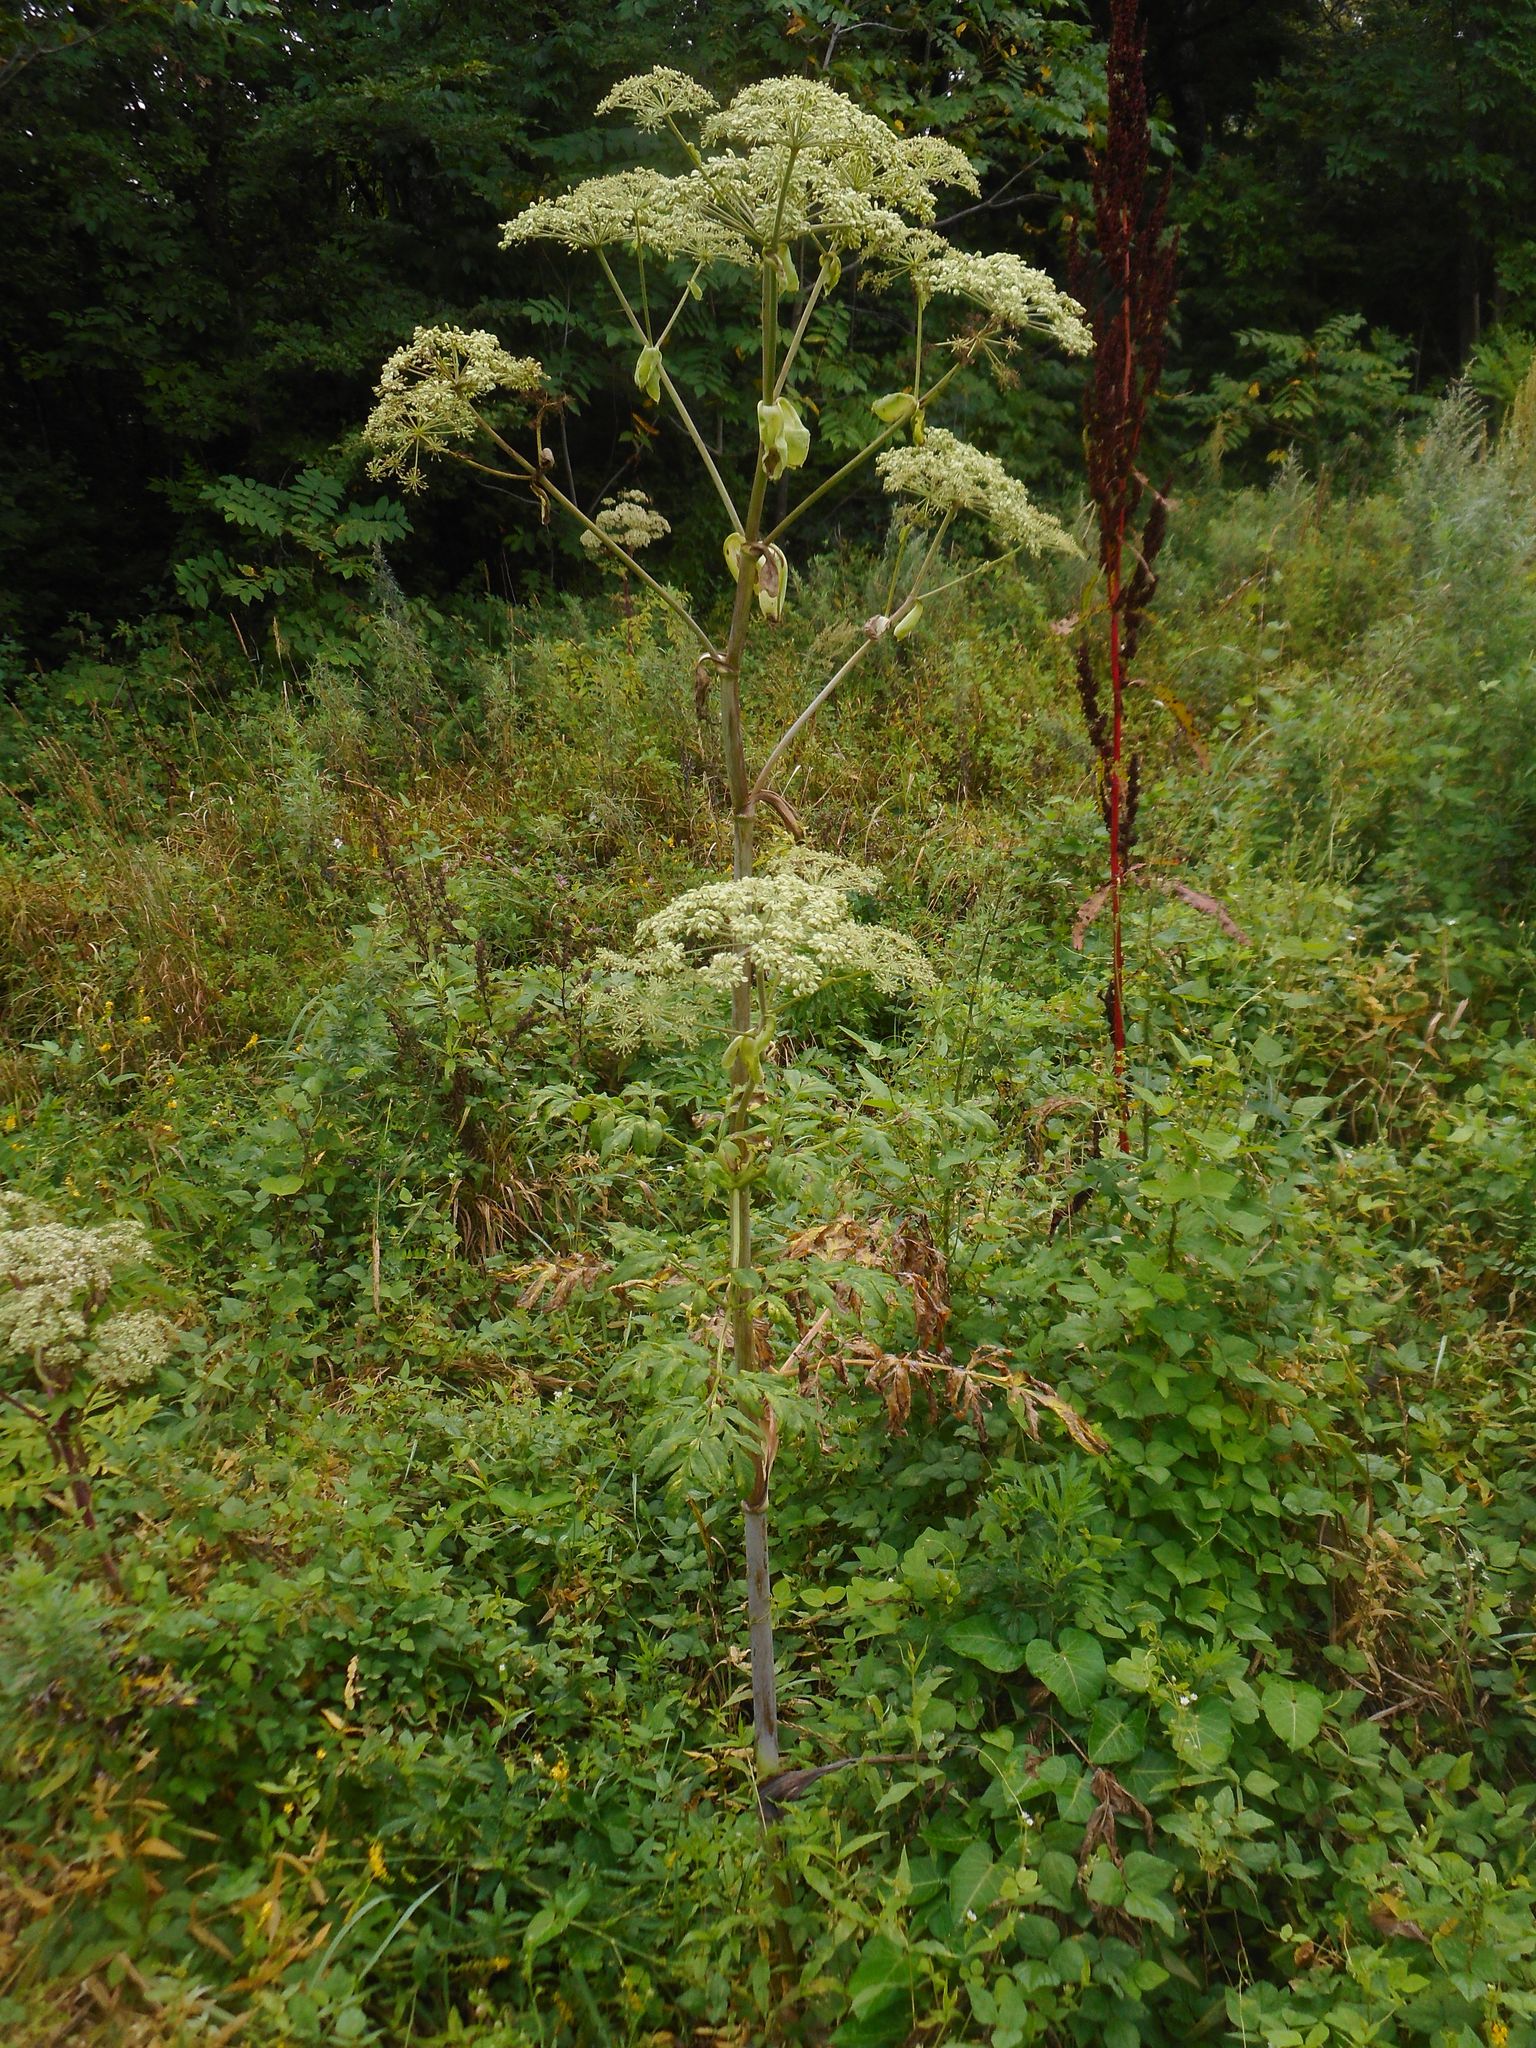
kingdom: Plantae
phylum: Tracheophyta
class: Magnoliopsida
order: Apiales
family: Apiaceae
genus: Angelica
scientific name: Angelica dahurica
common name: Dahurian angelica
